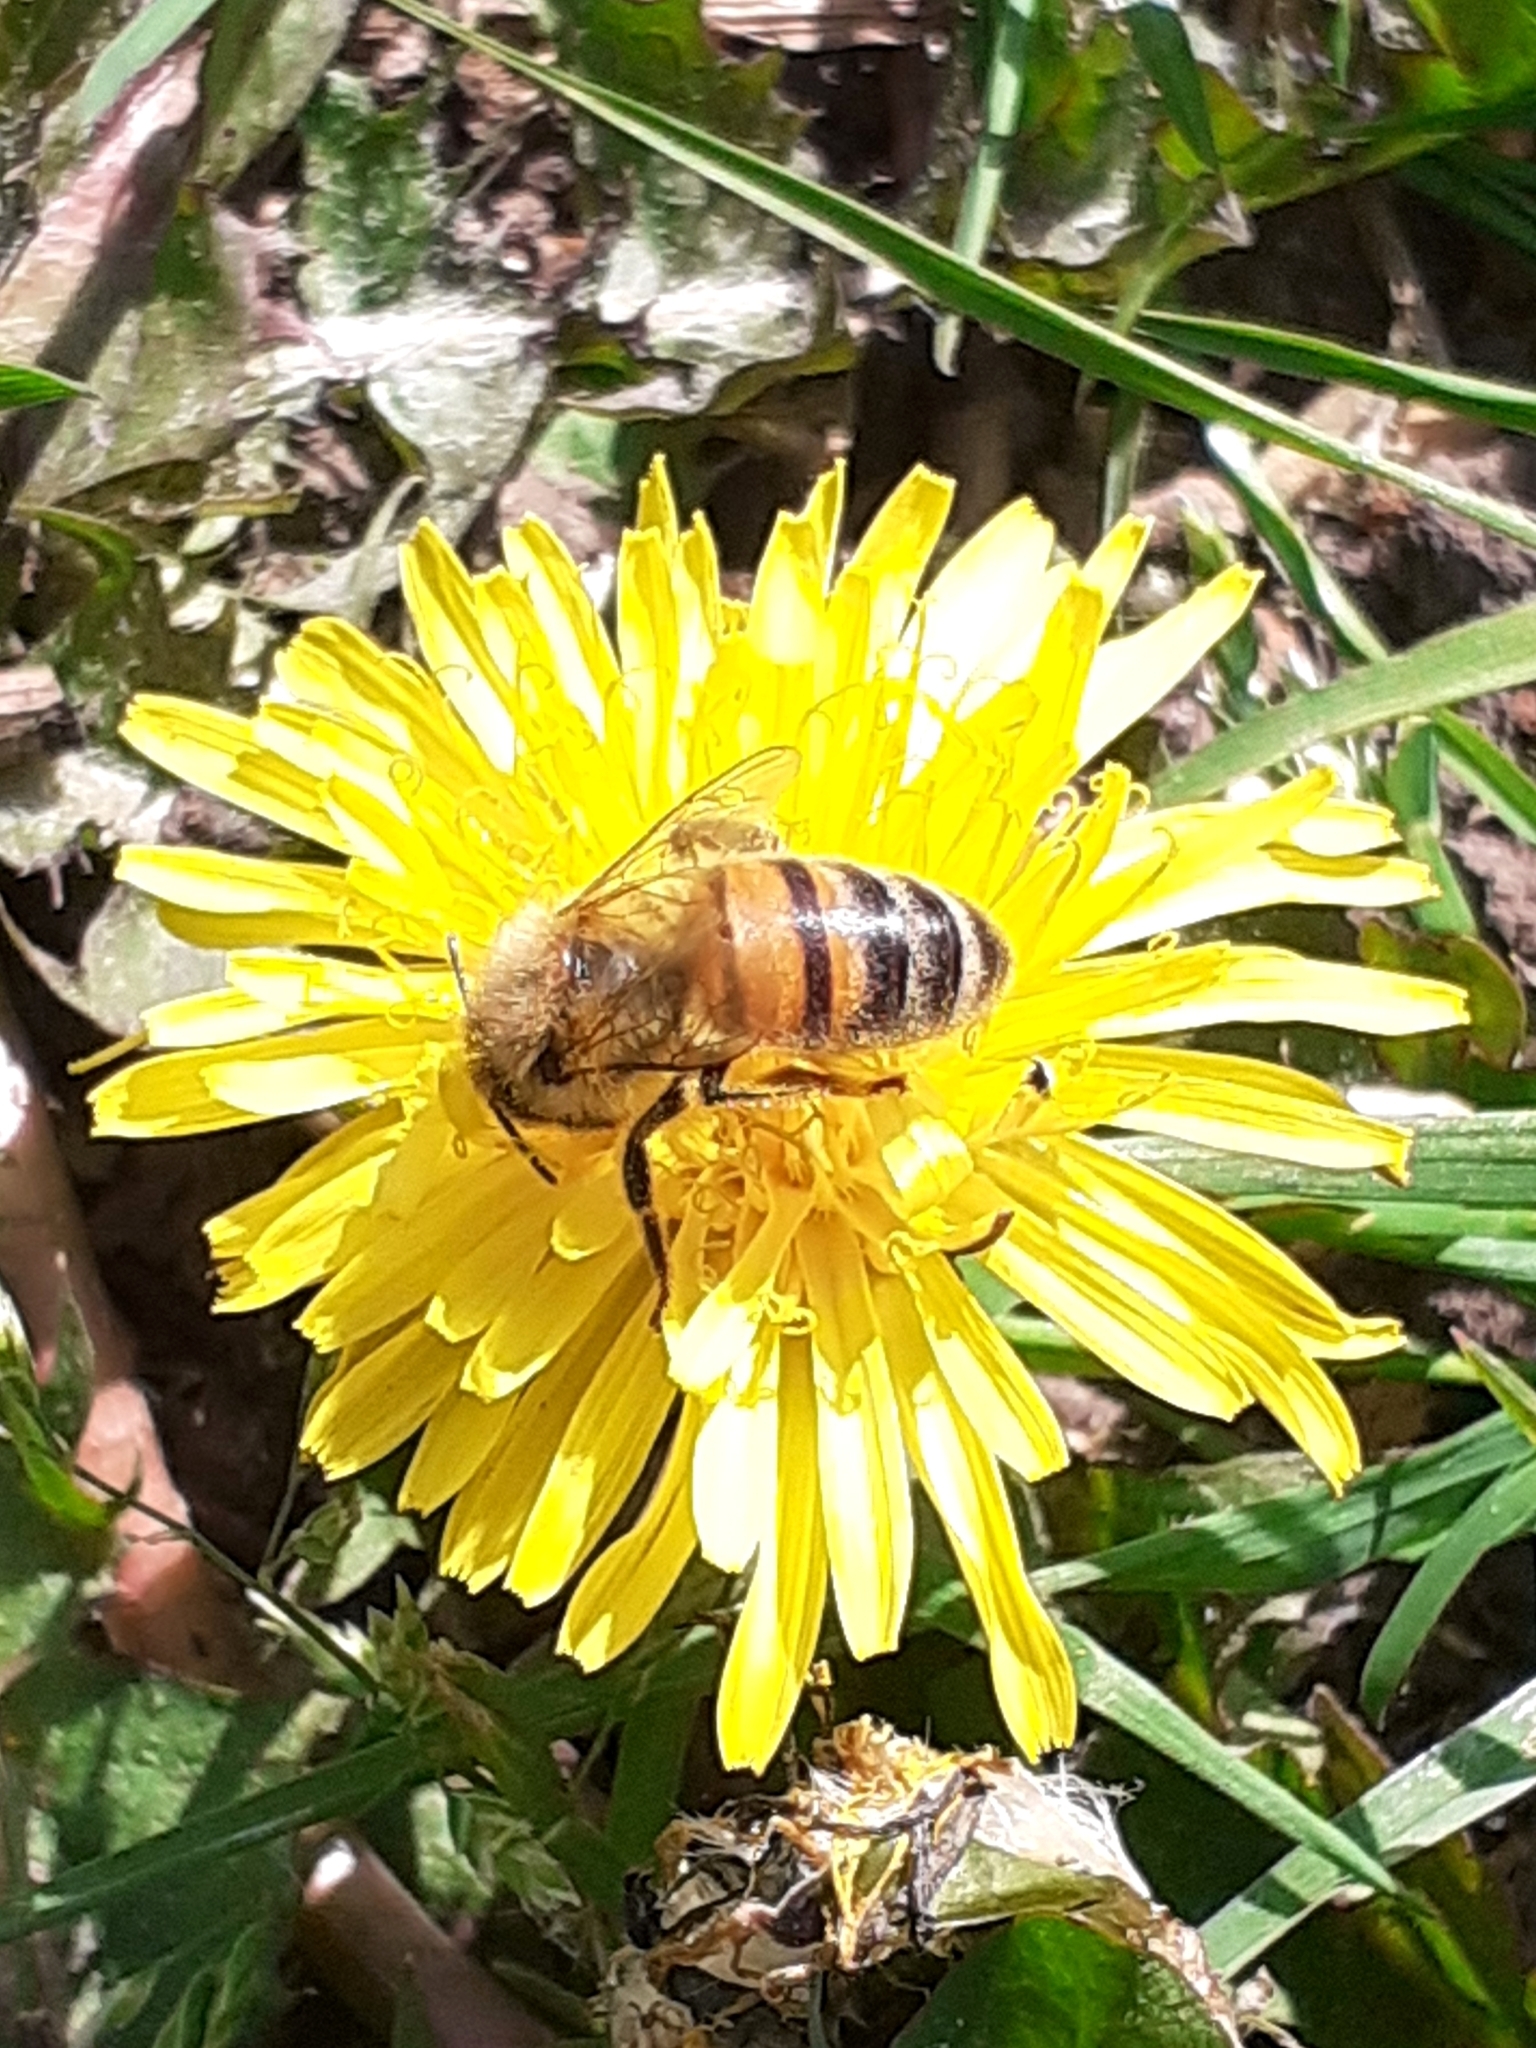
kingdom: Animalia
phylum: Arthropoda
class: Insecta
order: Hymenoptera
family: Apidae
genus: Apis
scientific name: Apis mellifera
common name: Honey bee
